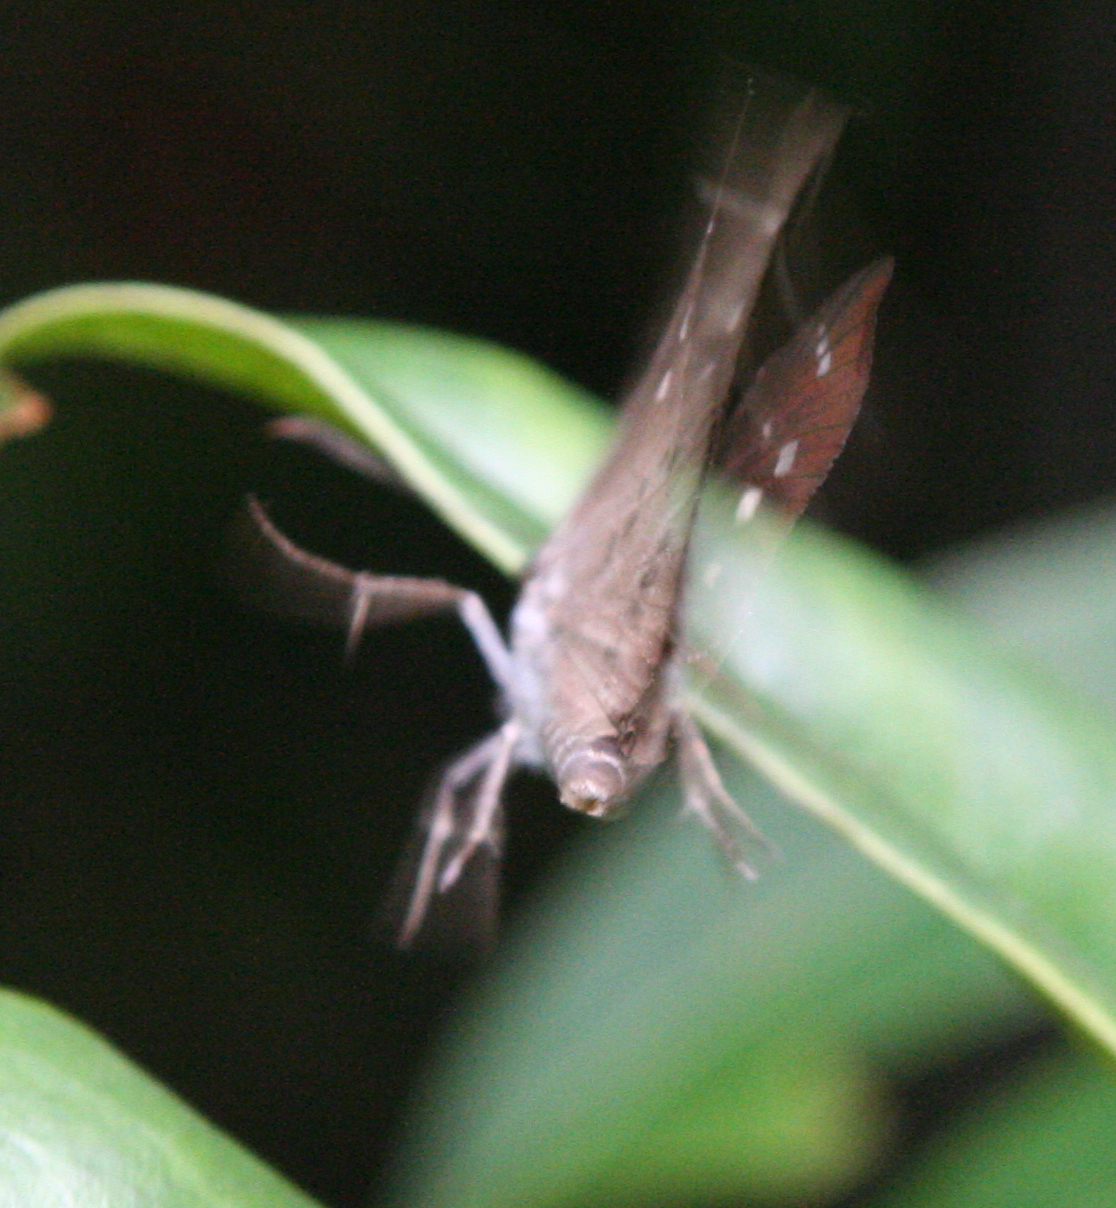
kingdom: Animalia
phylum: Arthropoda
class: Insecta
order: Lepidoptera
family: Hesperiidae
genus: Suastus
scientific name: Suastus gremius
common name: Indian palm bob
